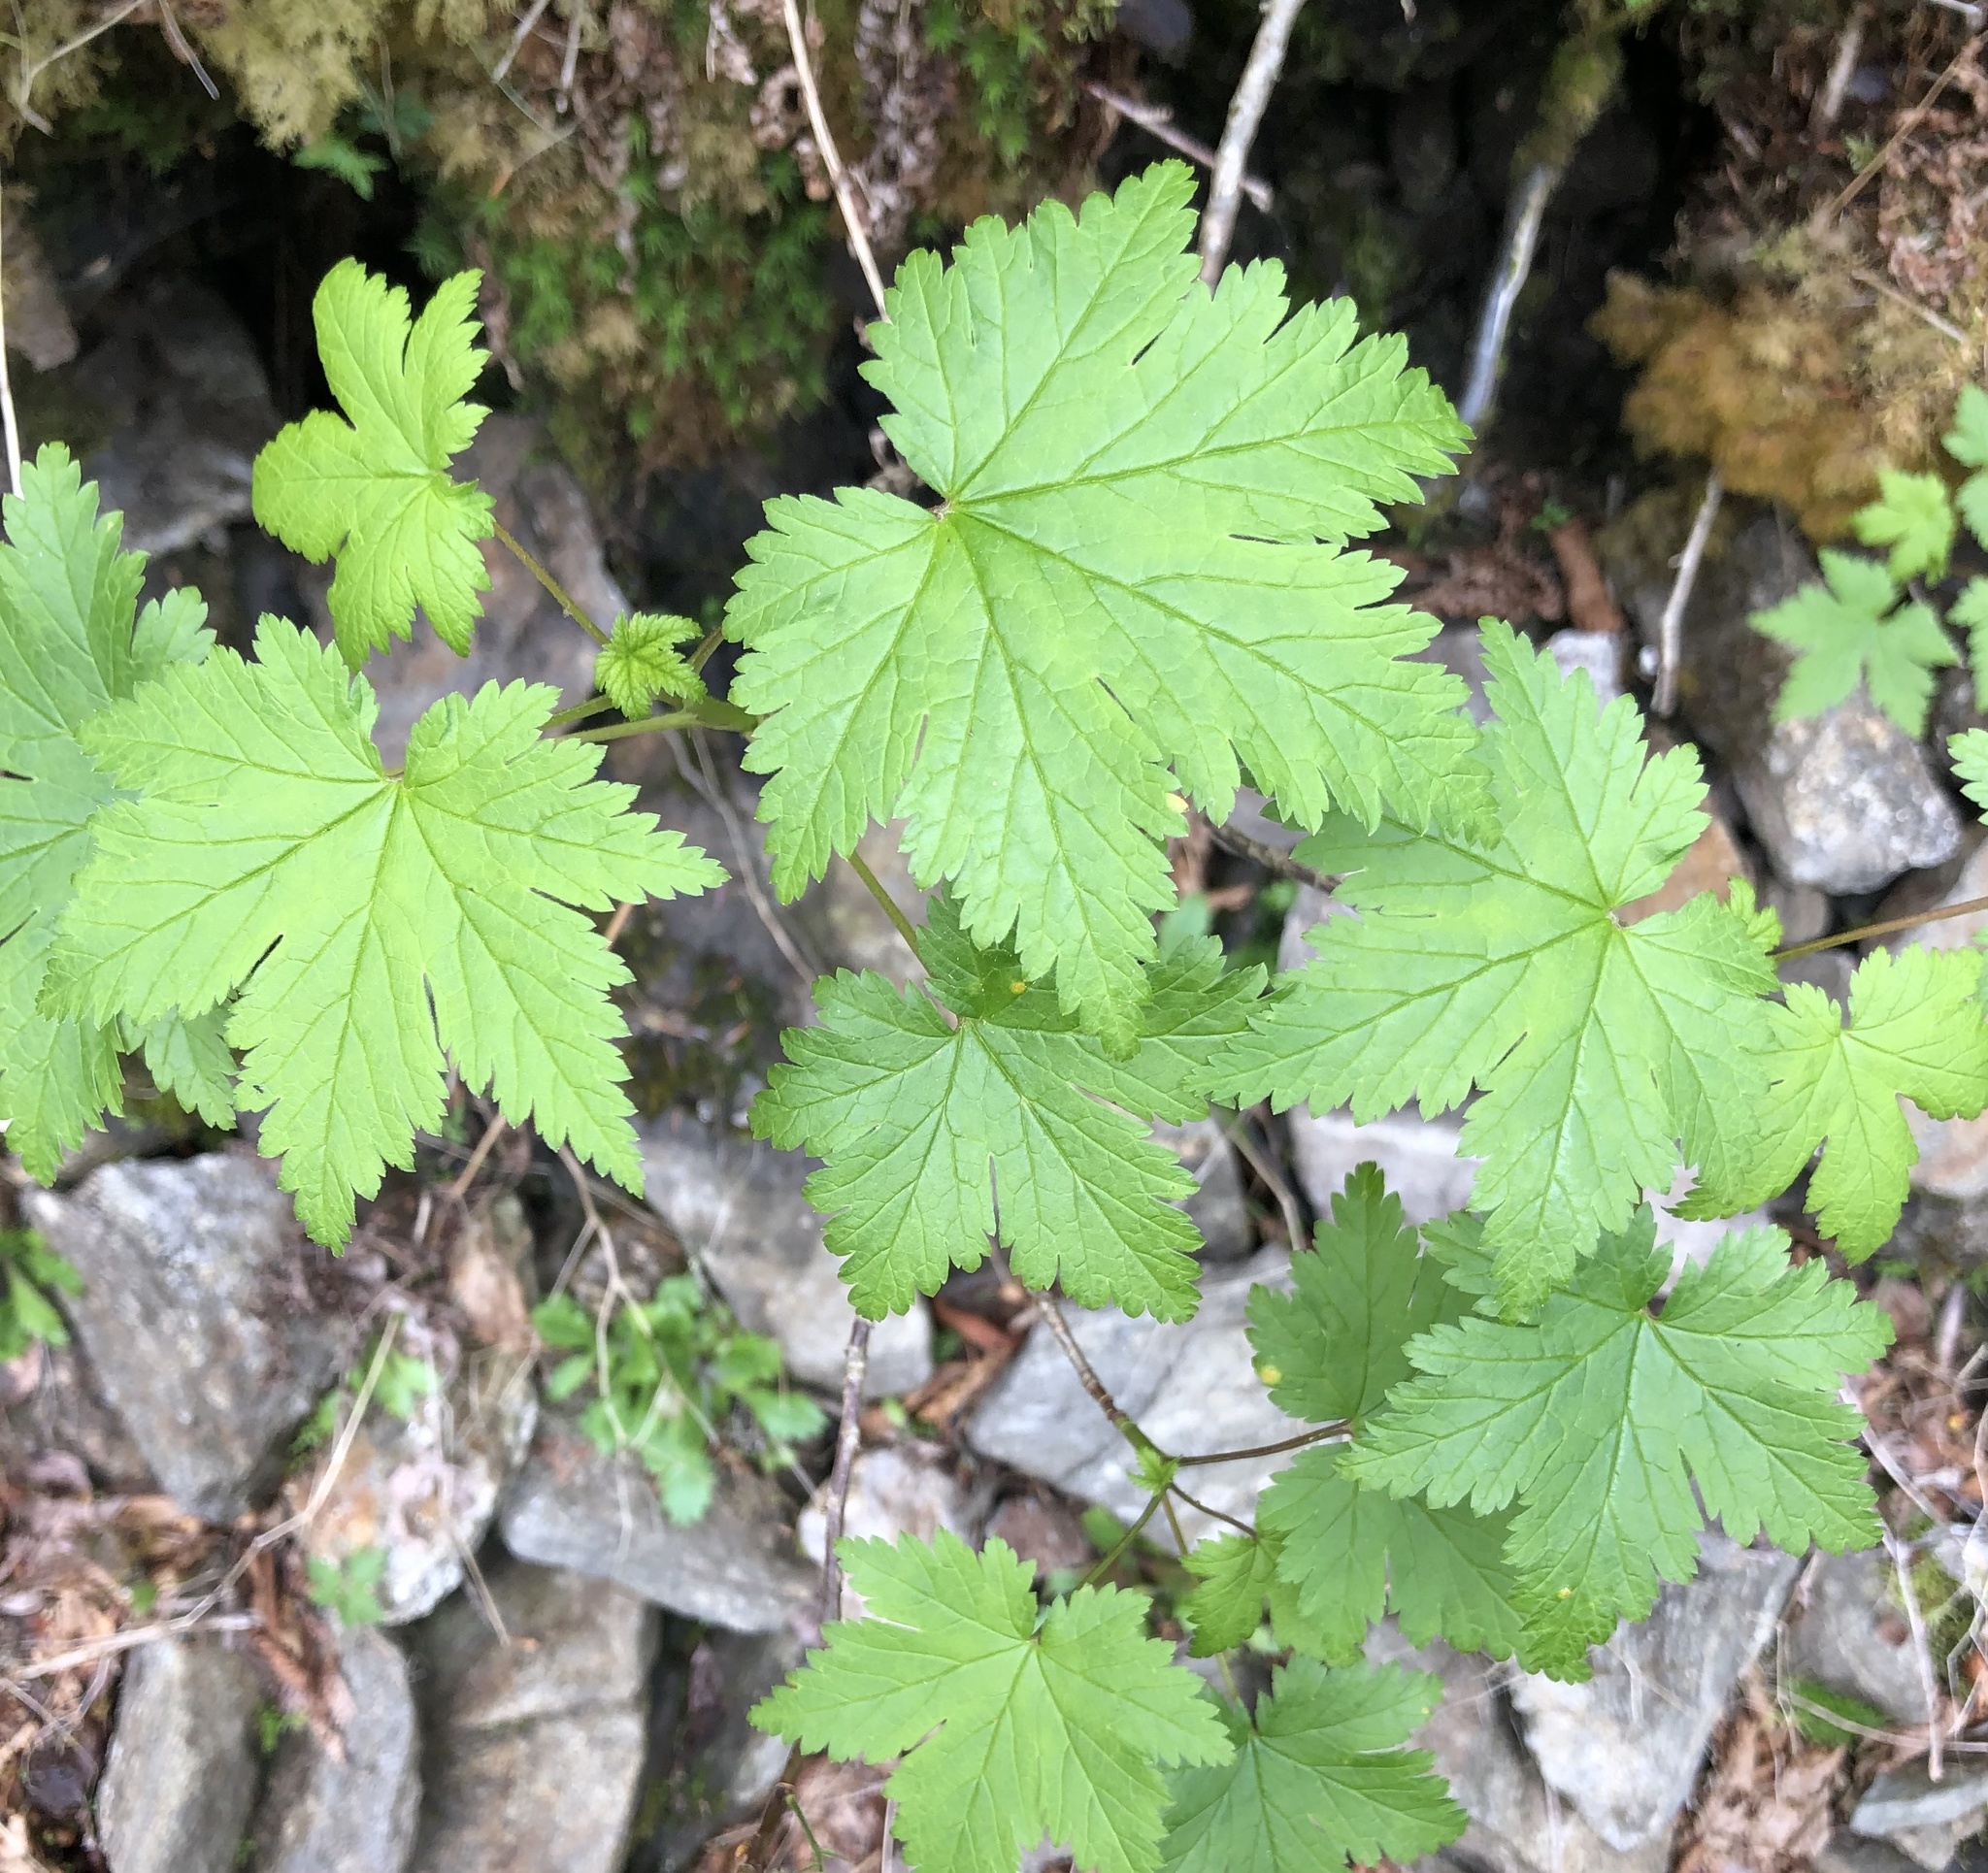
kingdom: Plantae
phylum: Tracheophyta
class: Magnoliopsida
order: Saxifragales
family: Grossulariaceae
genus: Ribes
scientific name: Ribes glandulosum
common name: Skunk currant
